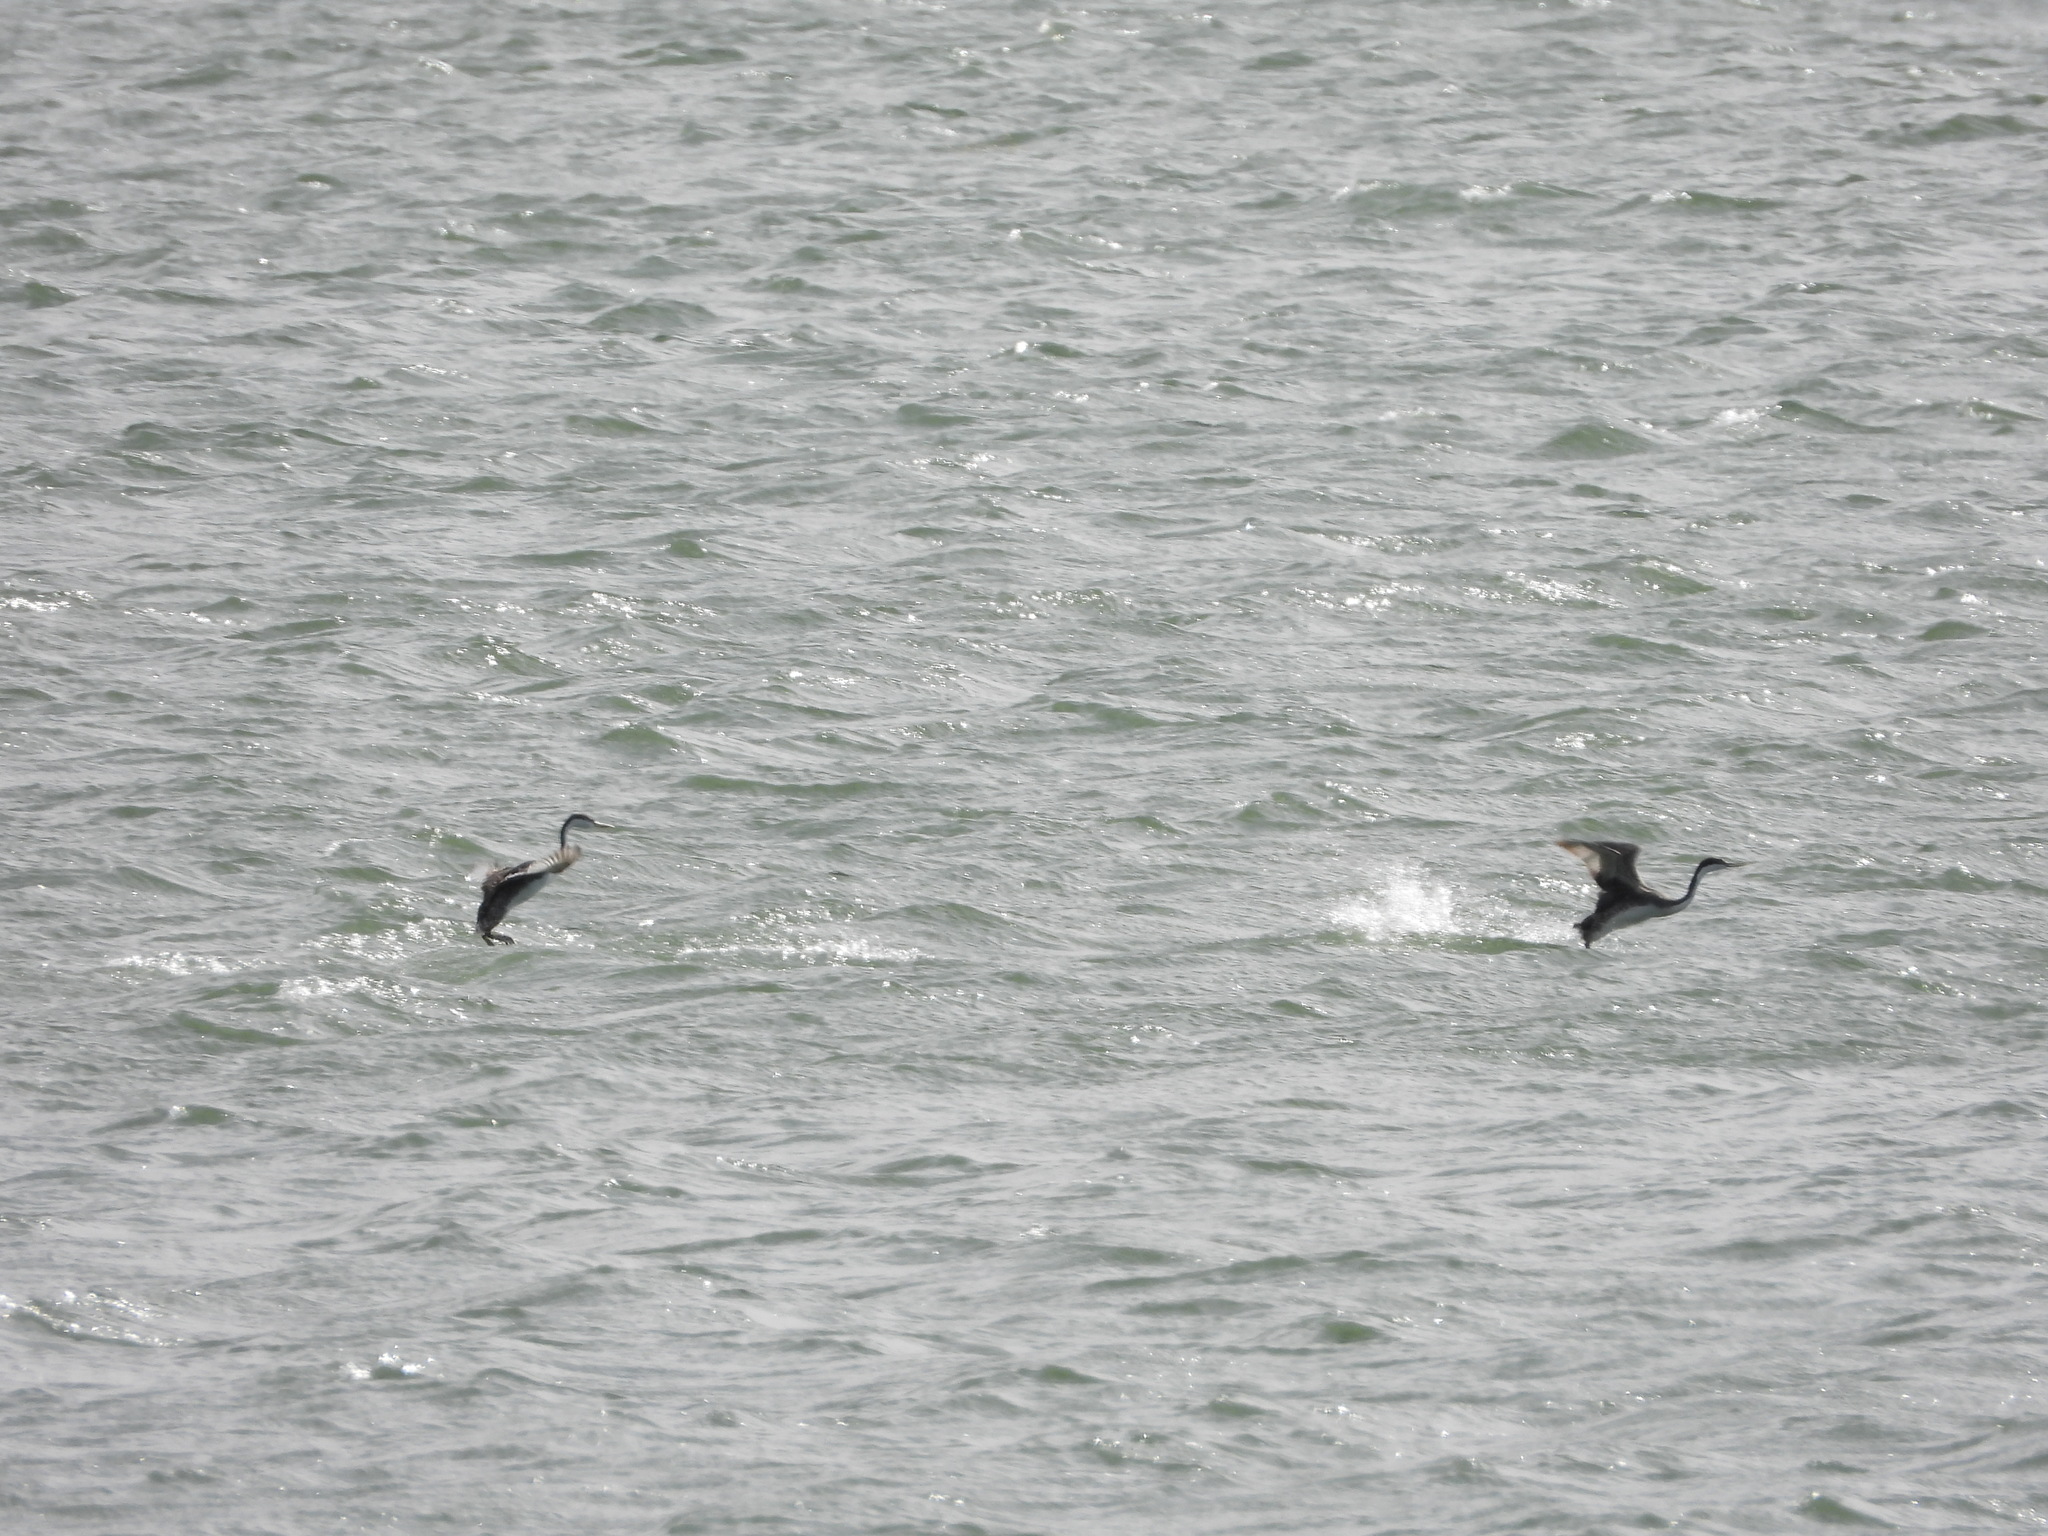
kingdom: Animalia
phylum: Chordata
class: Aves
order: Podicipediformes
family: Podicipedidae
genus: Aechmophorus
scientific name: Aechmophorus occidentalis
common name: Western grebe
